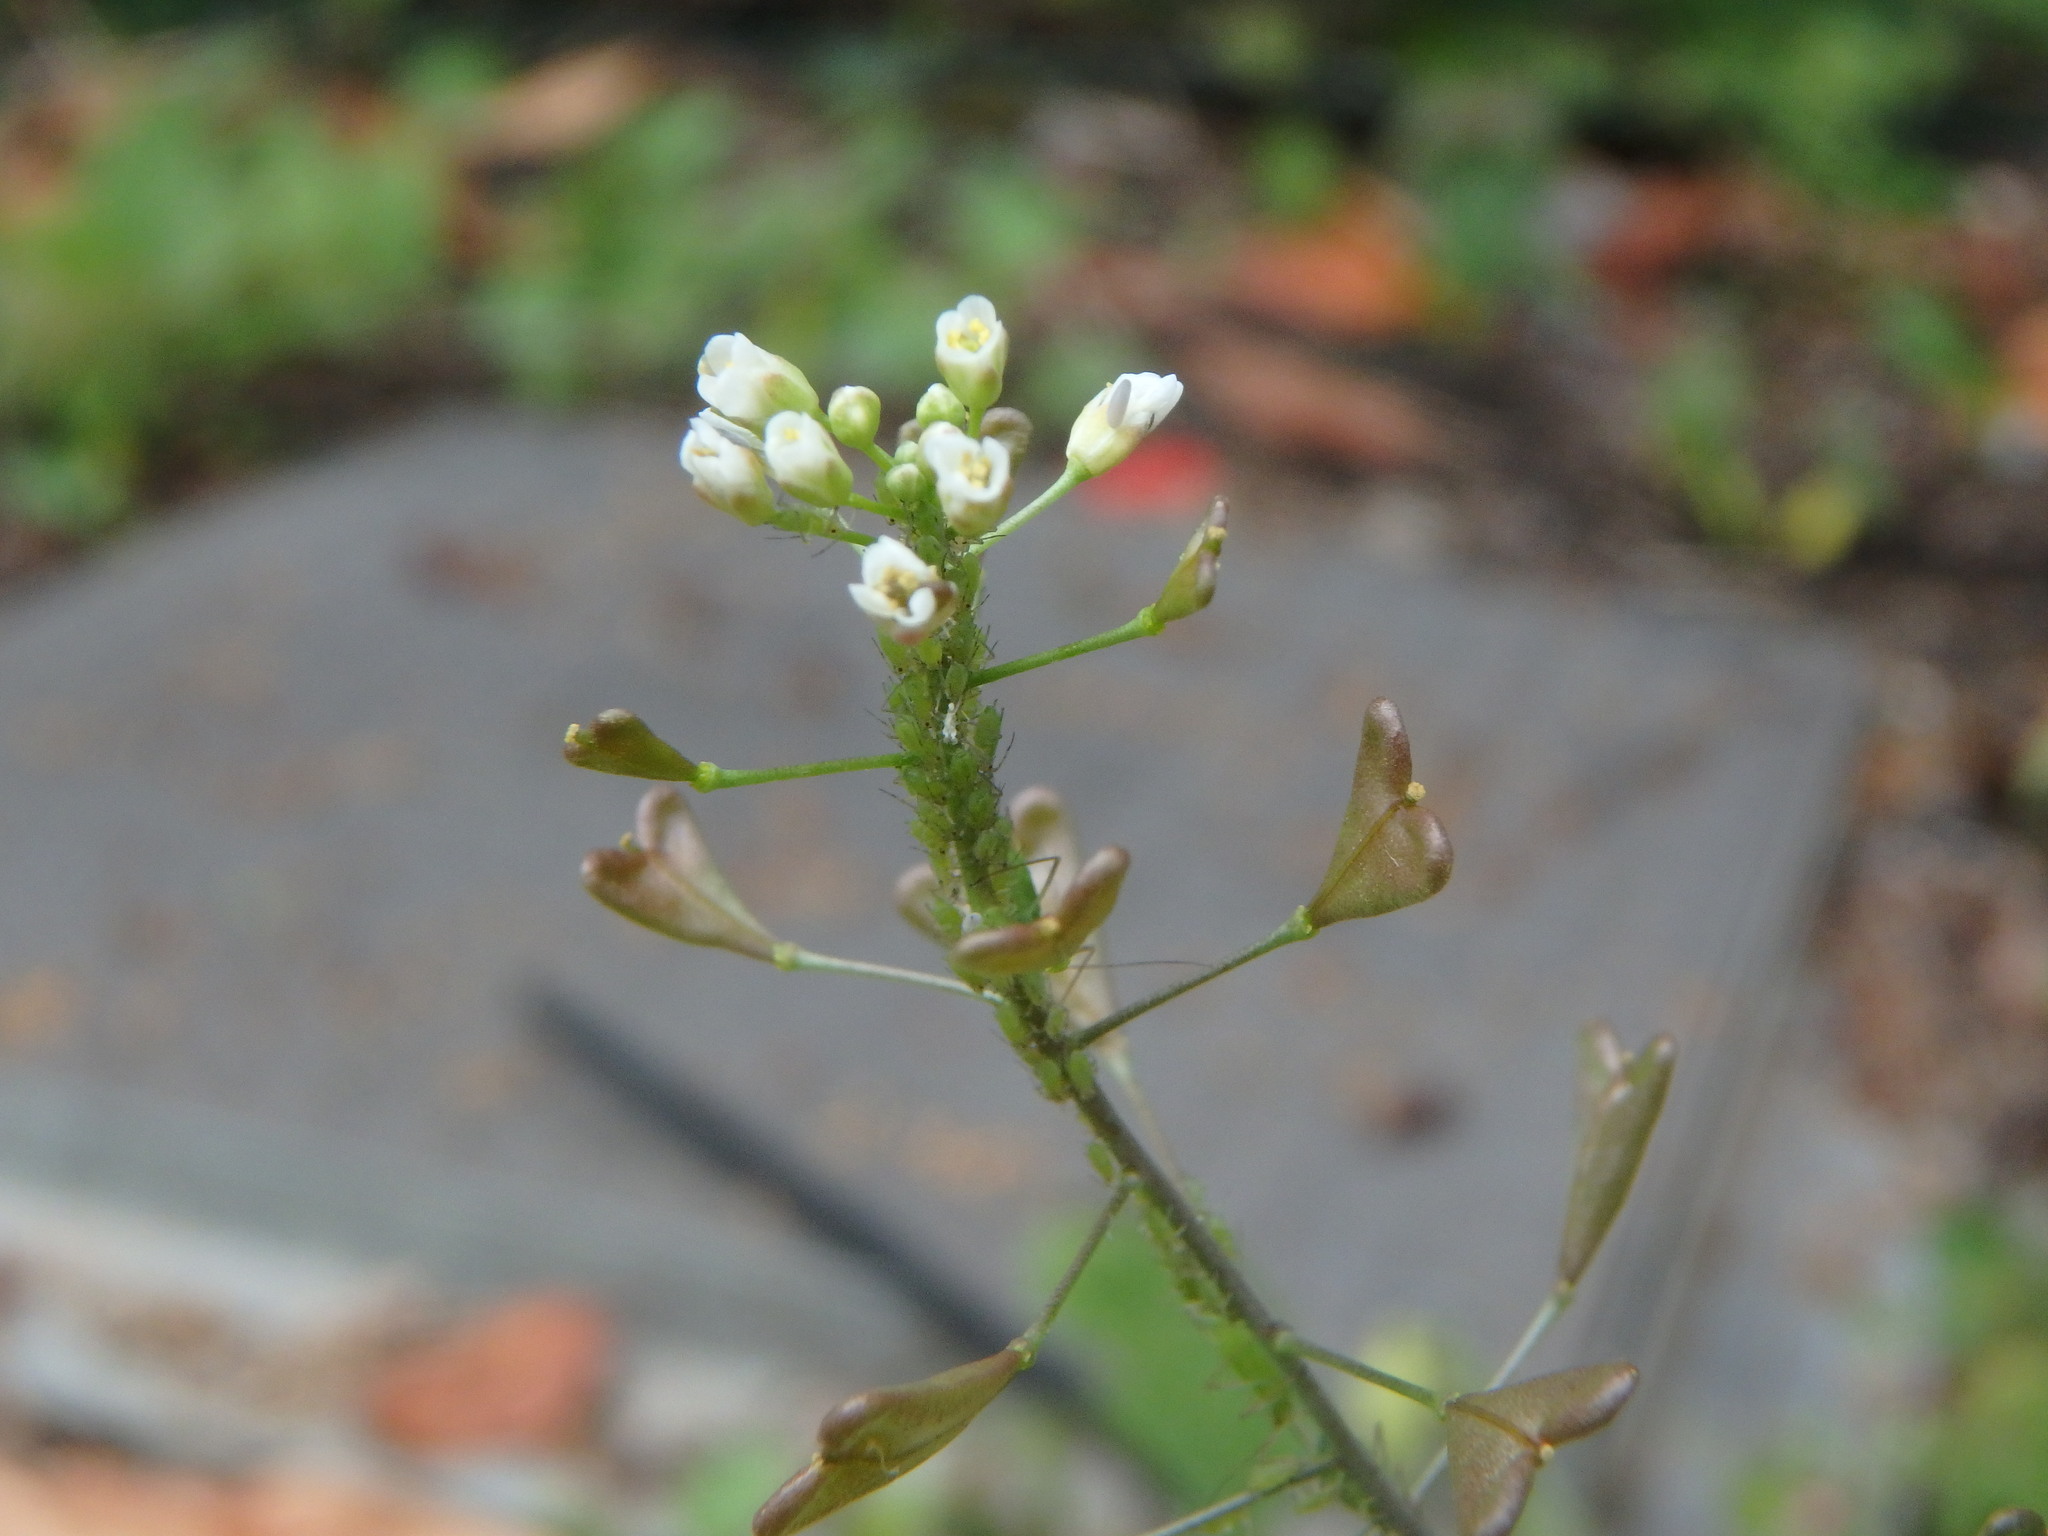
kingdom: Plantae
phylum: Tracheophyta
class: Magnoliopsida
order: Brassicales
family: Brassicaceae
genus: Capsella
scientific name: Capsella bursa-pastoris
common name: Shepherd's purse
